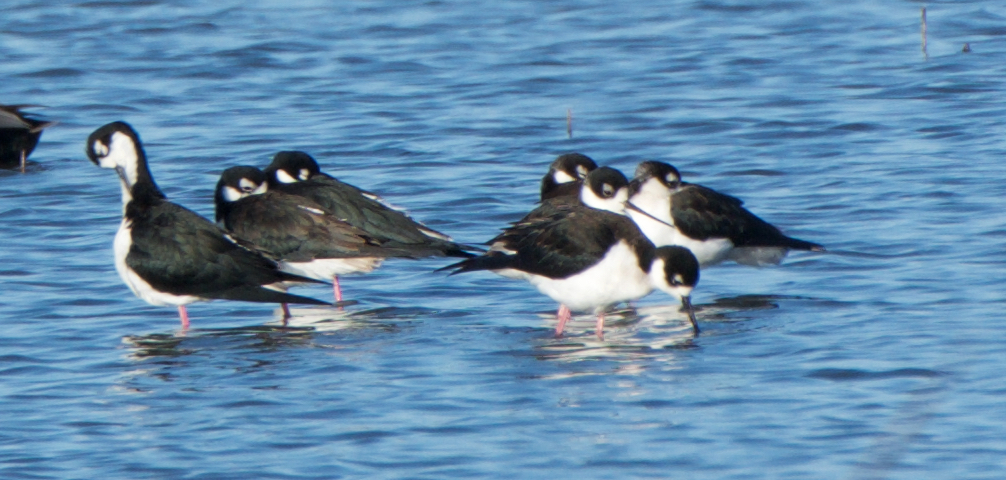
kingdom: Animalia
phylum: Chordata
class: Aves
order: Charadriiformes
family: Recurvirostridae
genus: Himantopus
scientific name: Himantopus mexicanus
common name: Black-necked stilt
